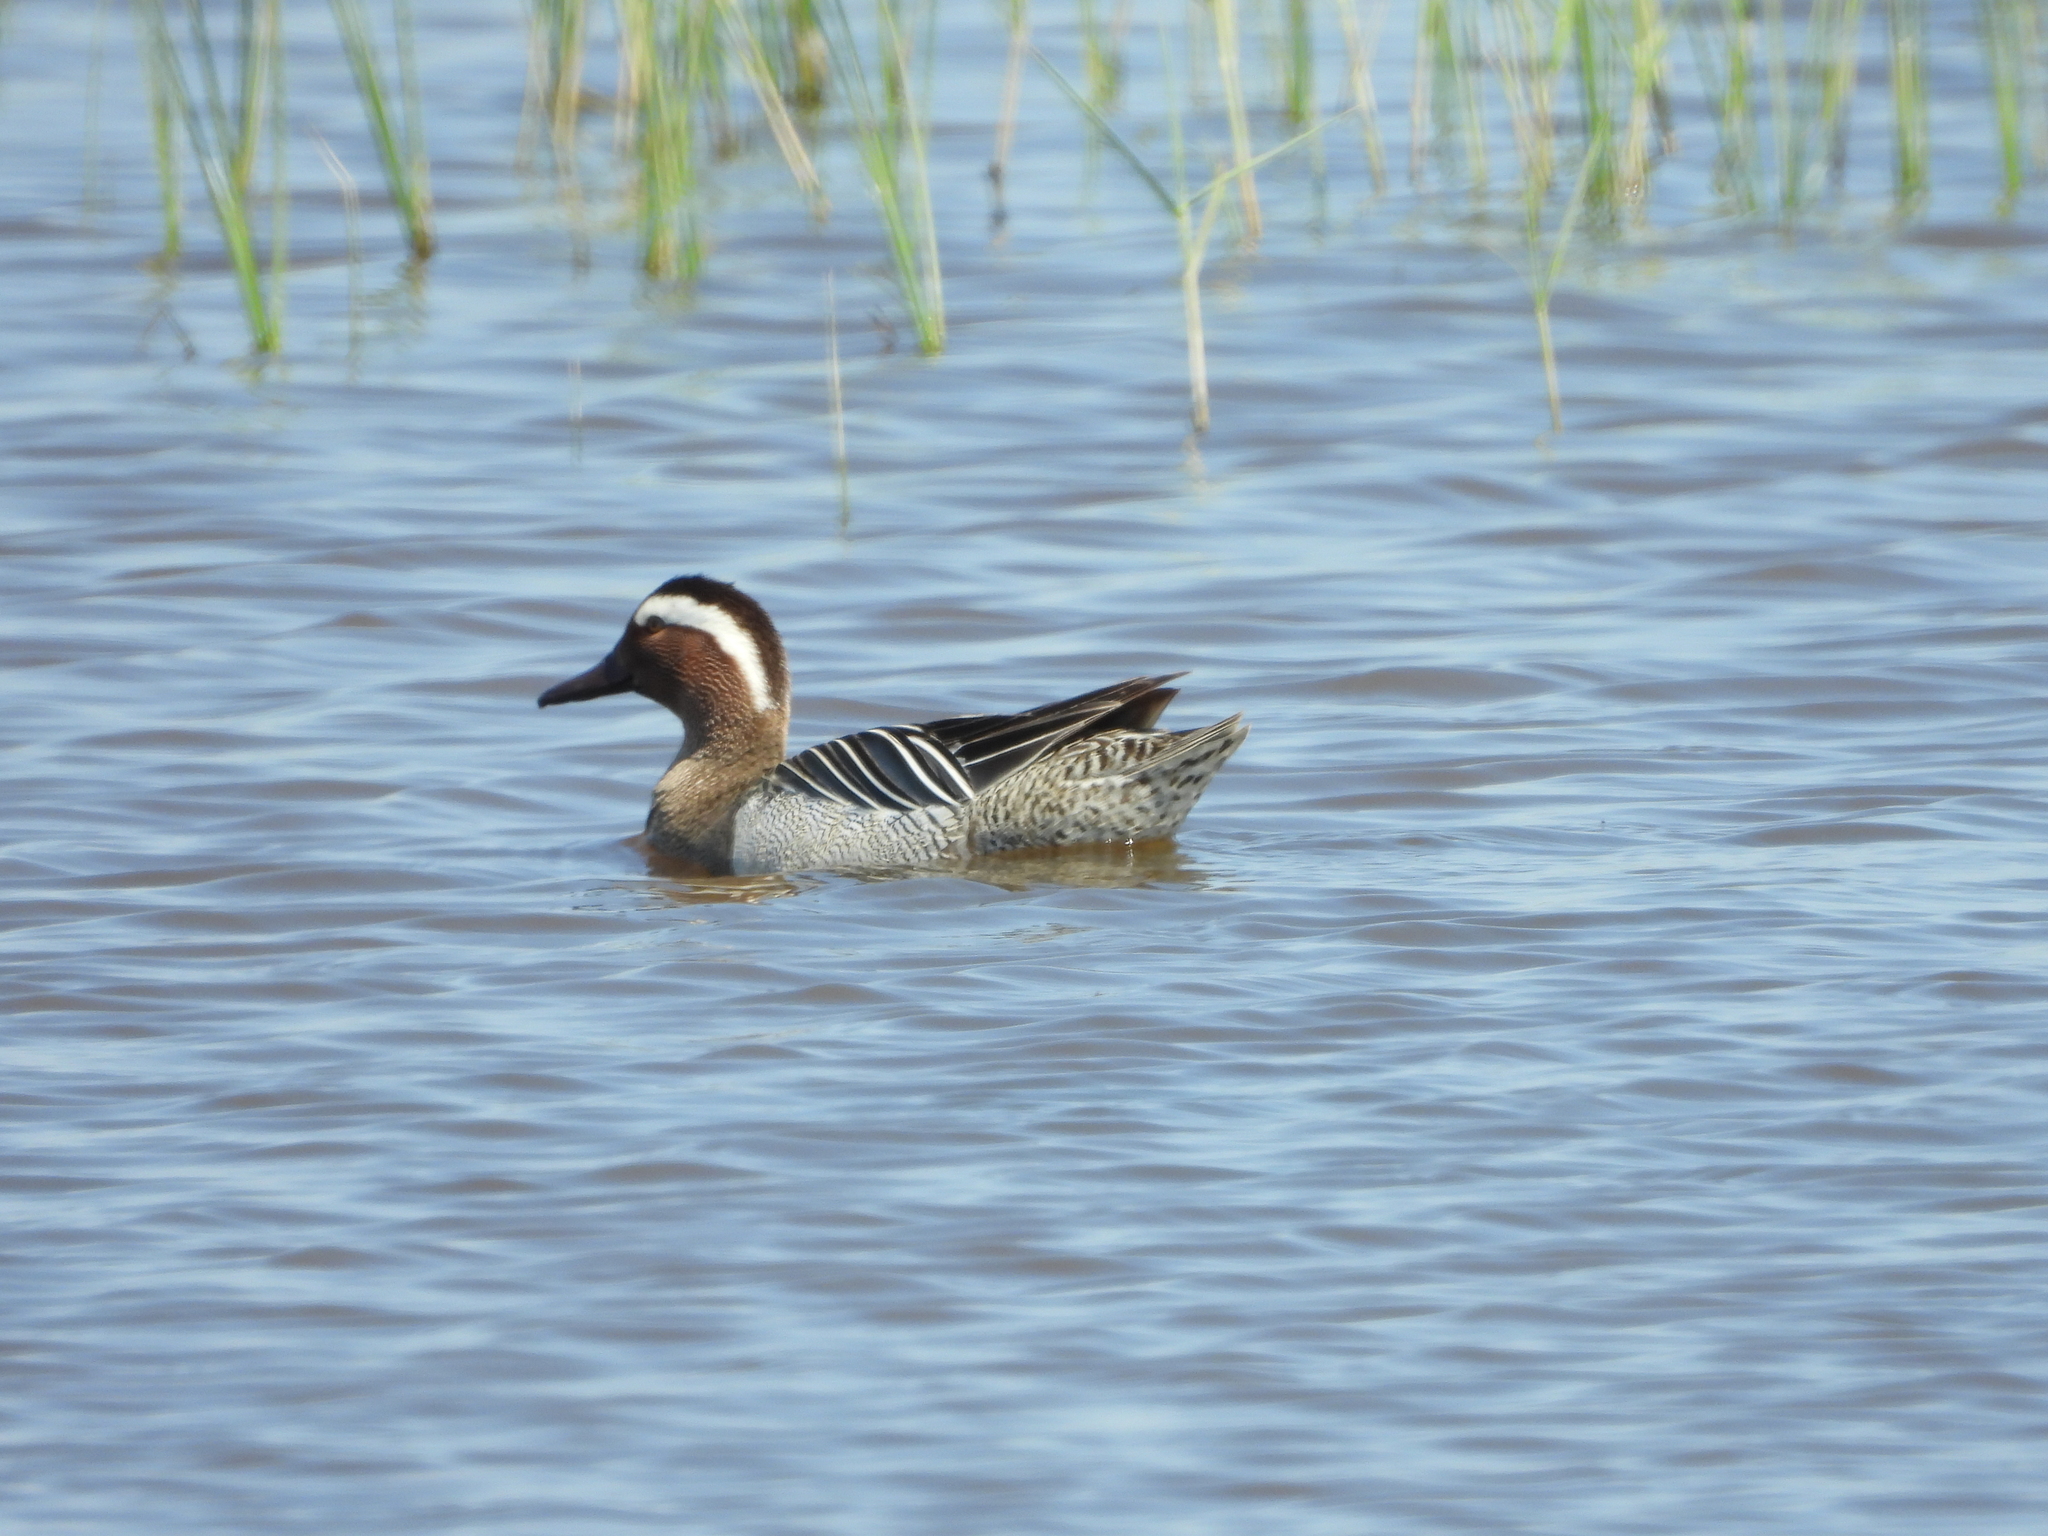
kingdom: Animalia
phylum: Chordata
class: Aves
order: Anseriformes
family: Anatidae
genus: Spatula
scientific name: Spatula querquedula
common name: Garganey
